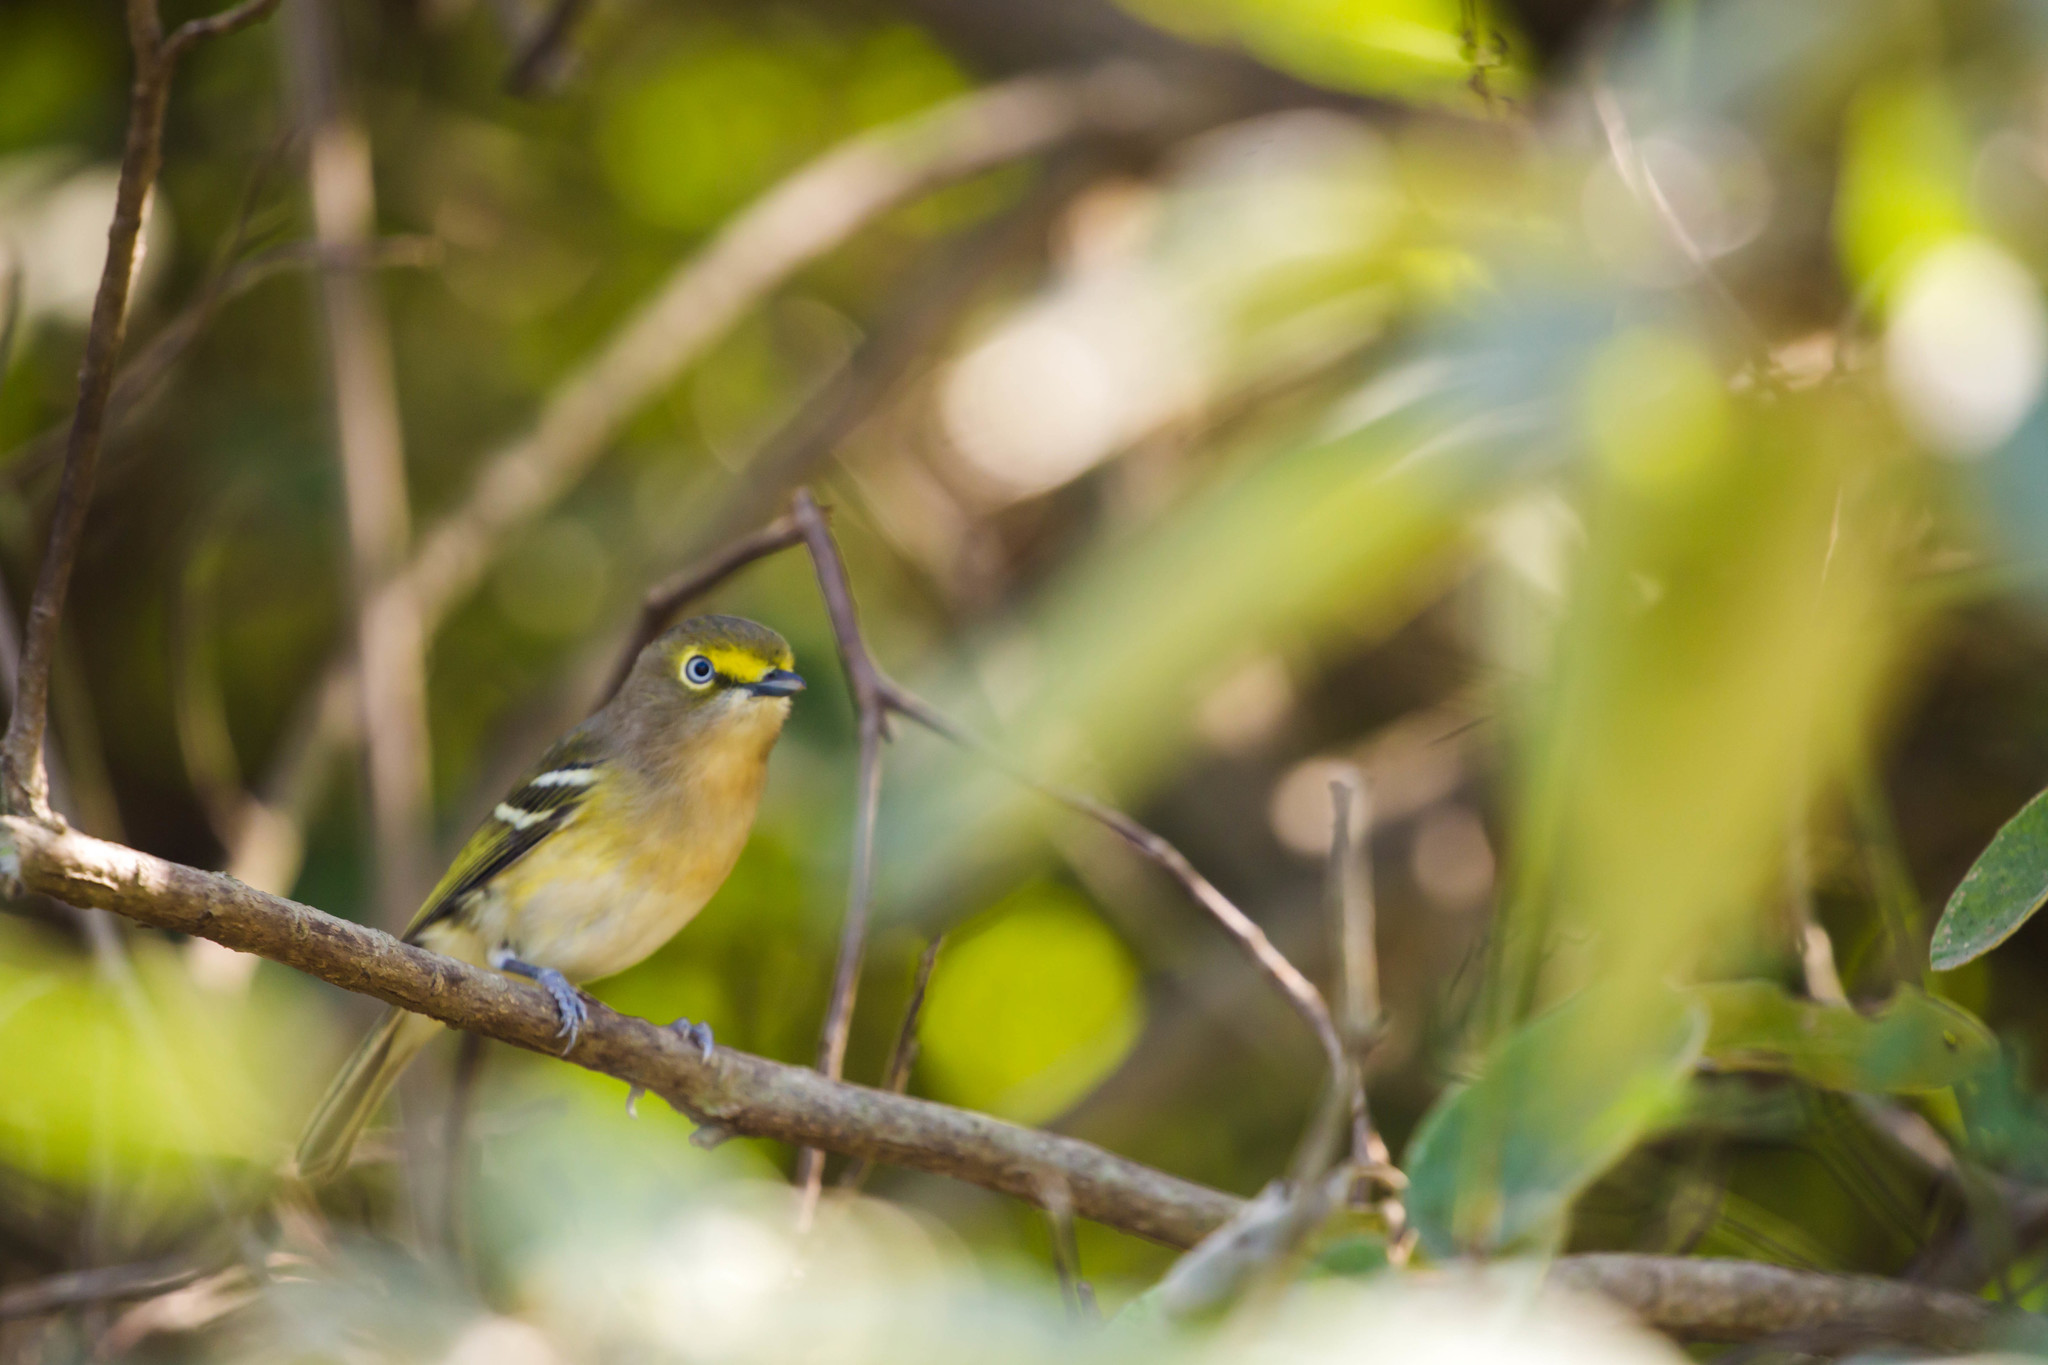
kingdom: Animalia
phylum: Chordata
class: Aves
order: Passeriformes
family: Vireonidae
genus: Vireo
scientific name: Vireo griseus
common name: White-eyed vireo
